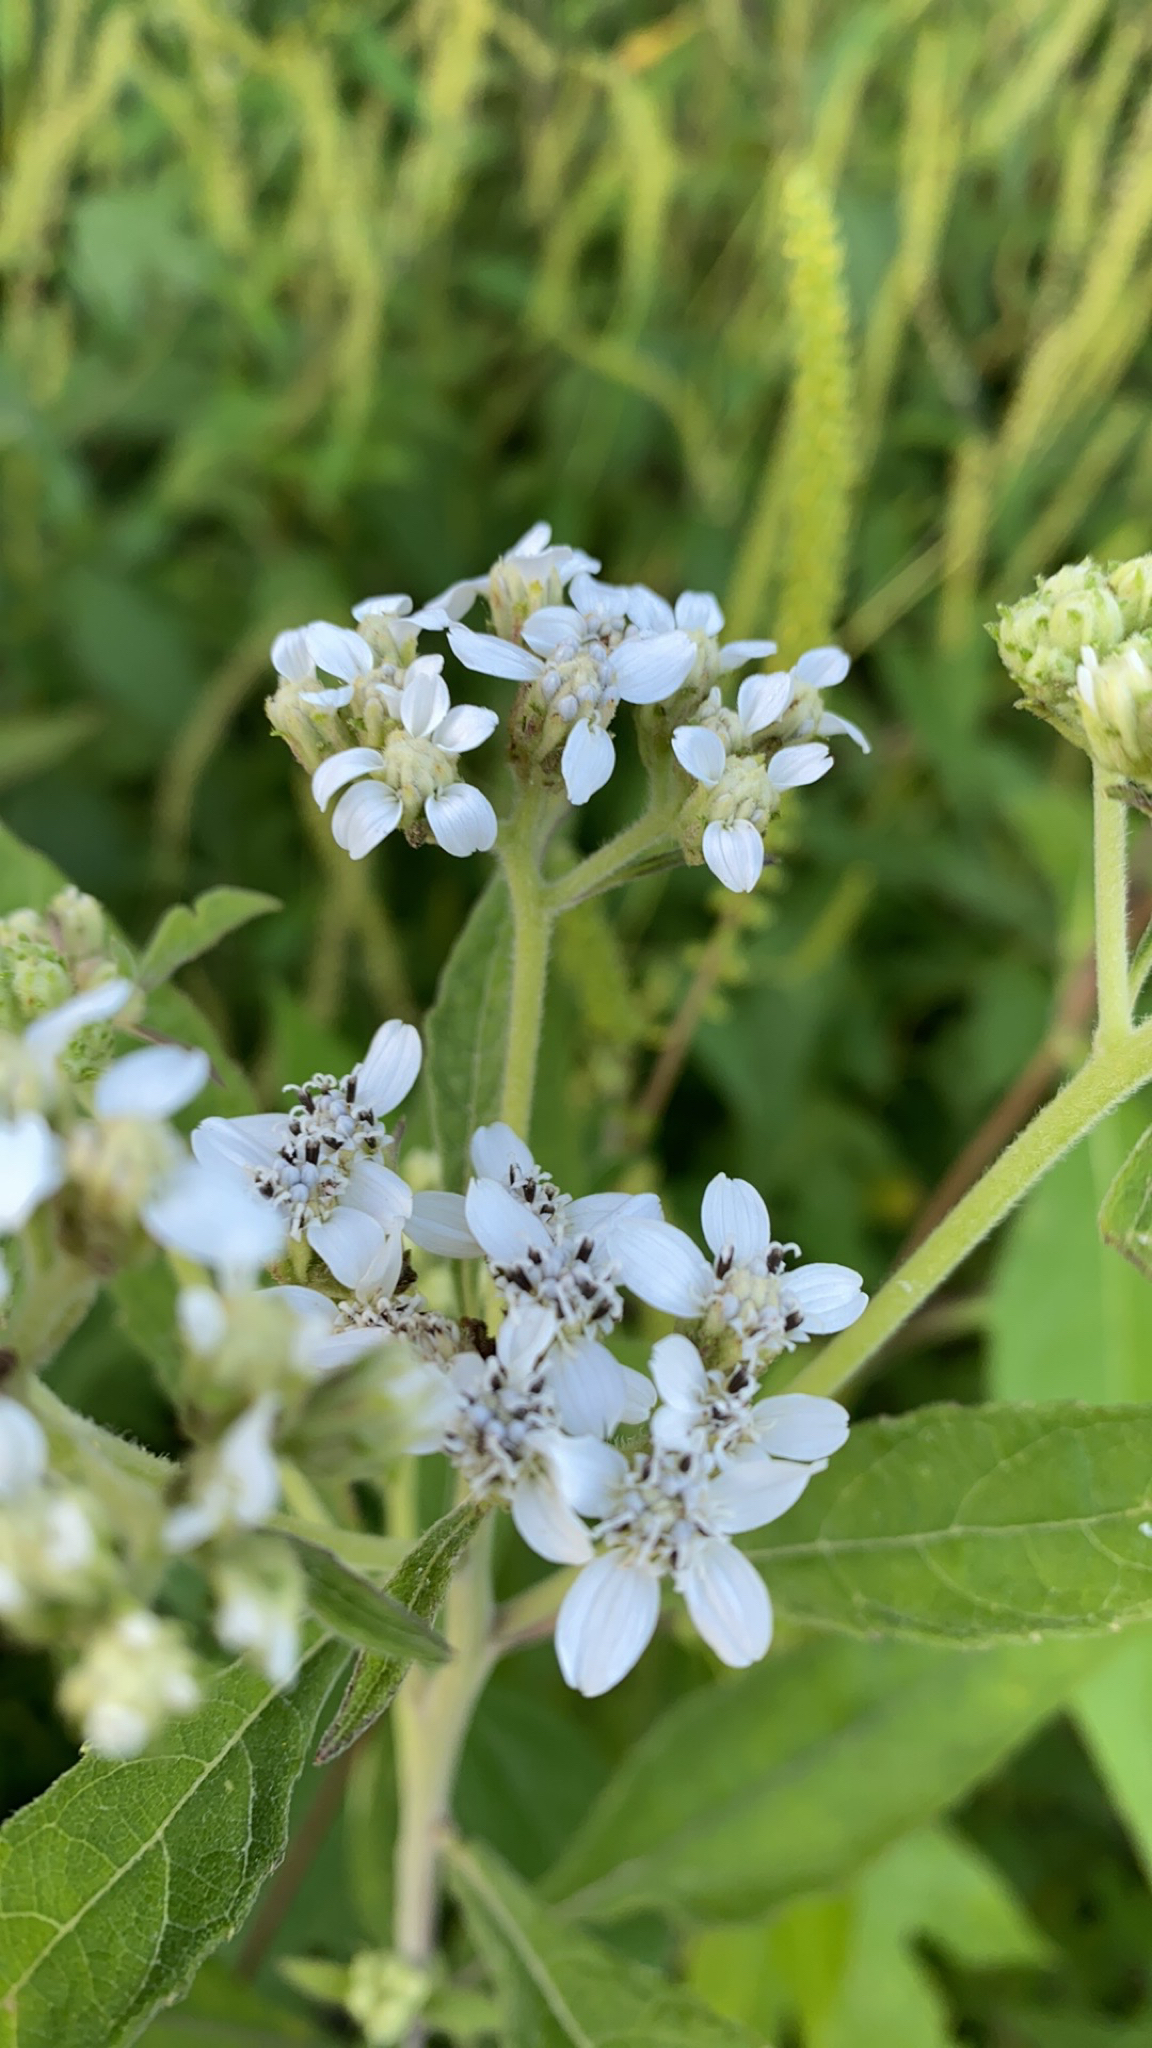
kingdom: Plantae
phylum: Tracheophyta
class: Magnoliopsida
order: Asterales
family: Asteraceae
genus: Verbesina
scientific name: Verbesina virginica
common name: Frostweed
